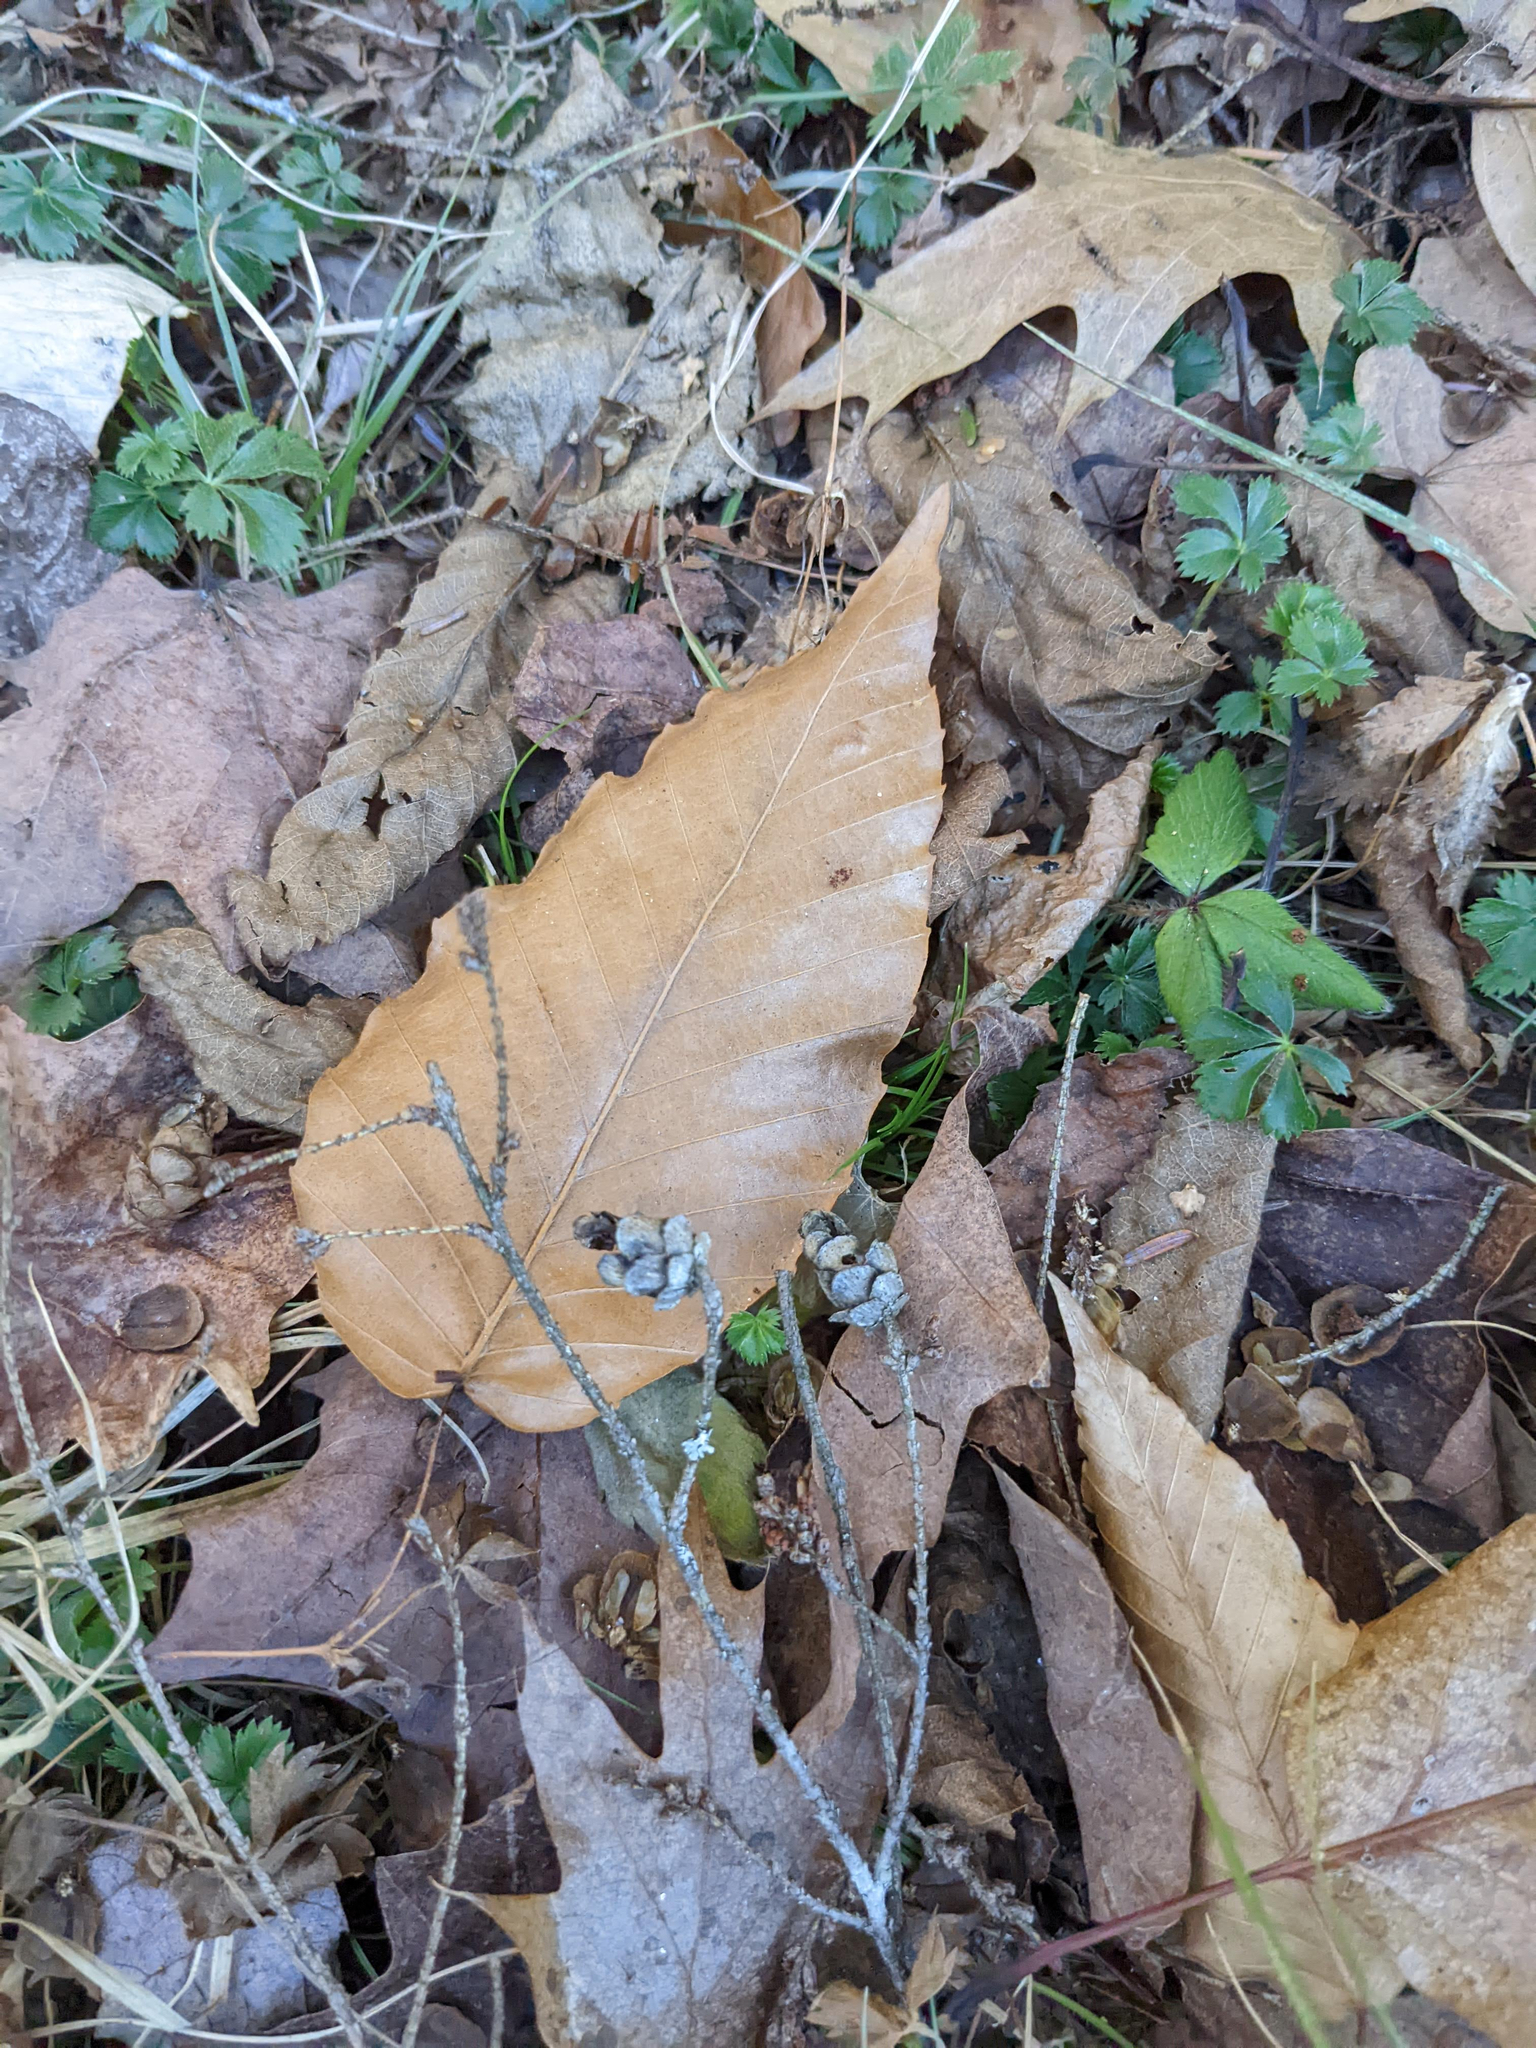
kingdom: Plantae
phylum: Tracheophyta
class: Magnoliopsida
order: Fagales
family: Fagaceae
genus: Fagus
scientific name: Fagus grandifolia
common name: American beech
